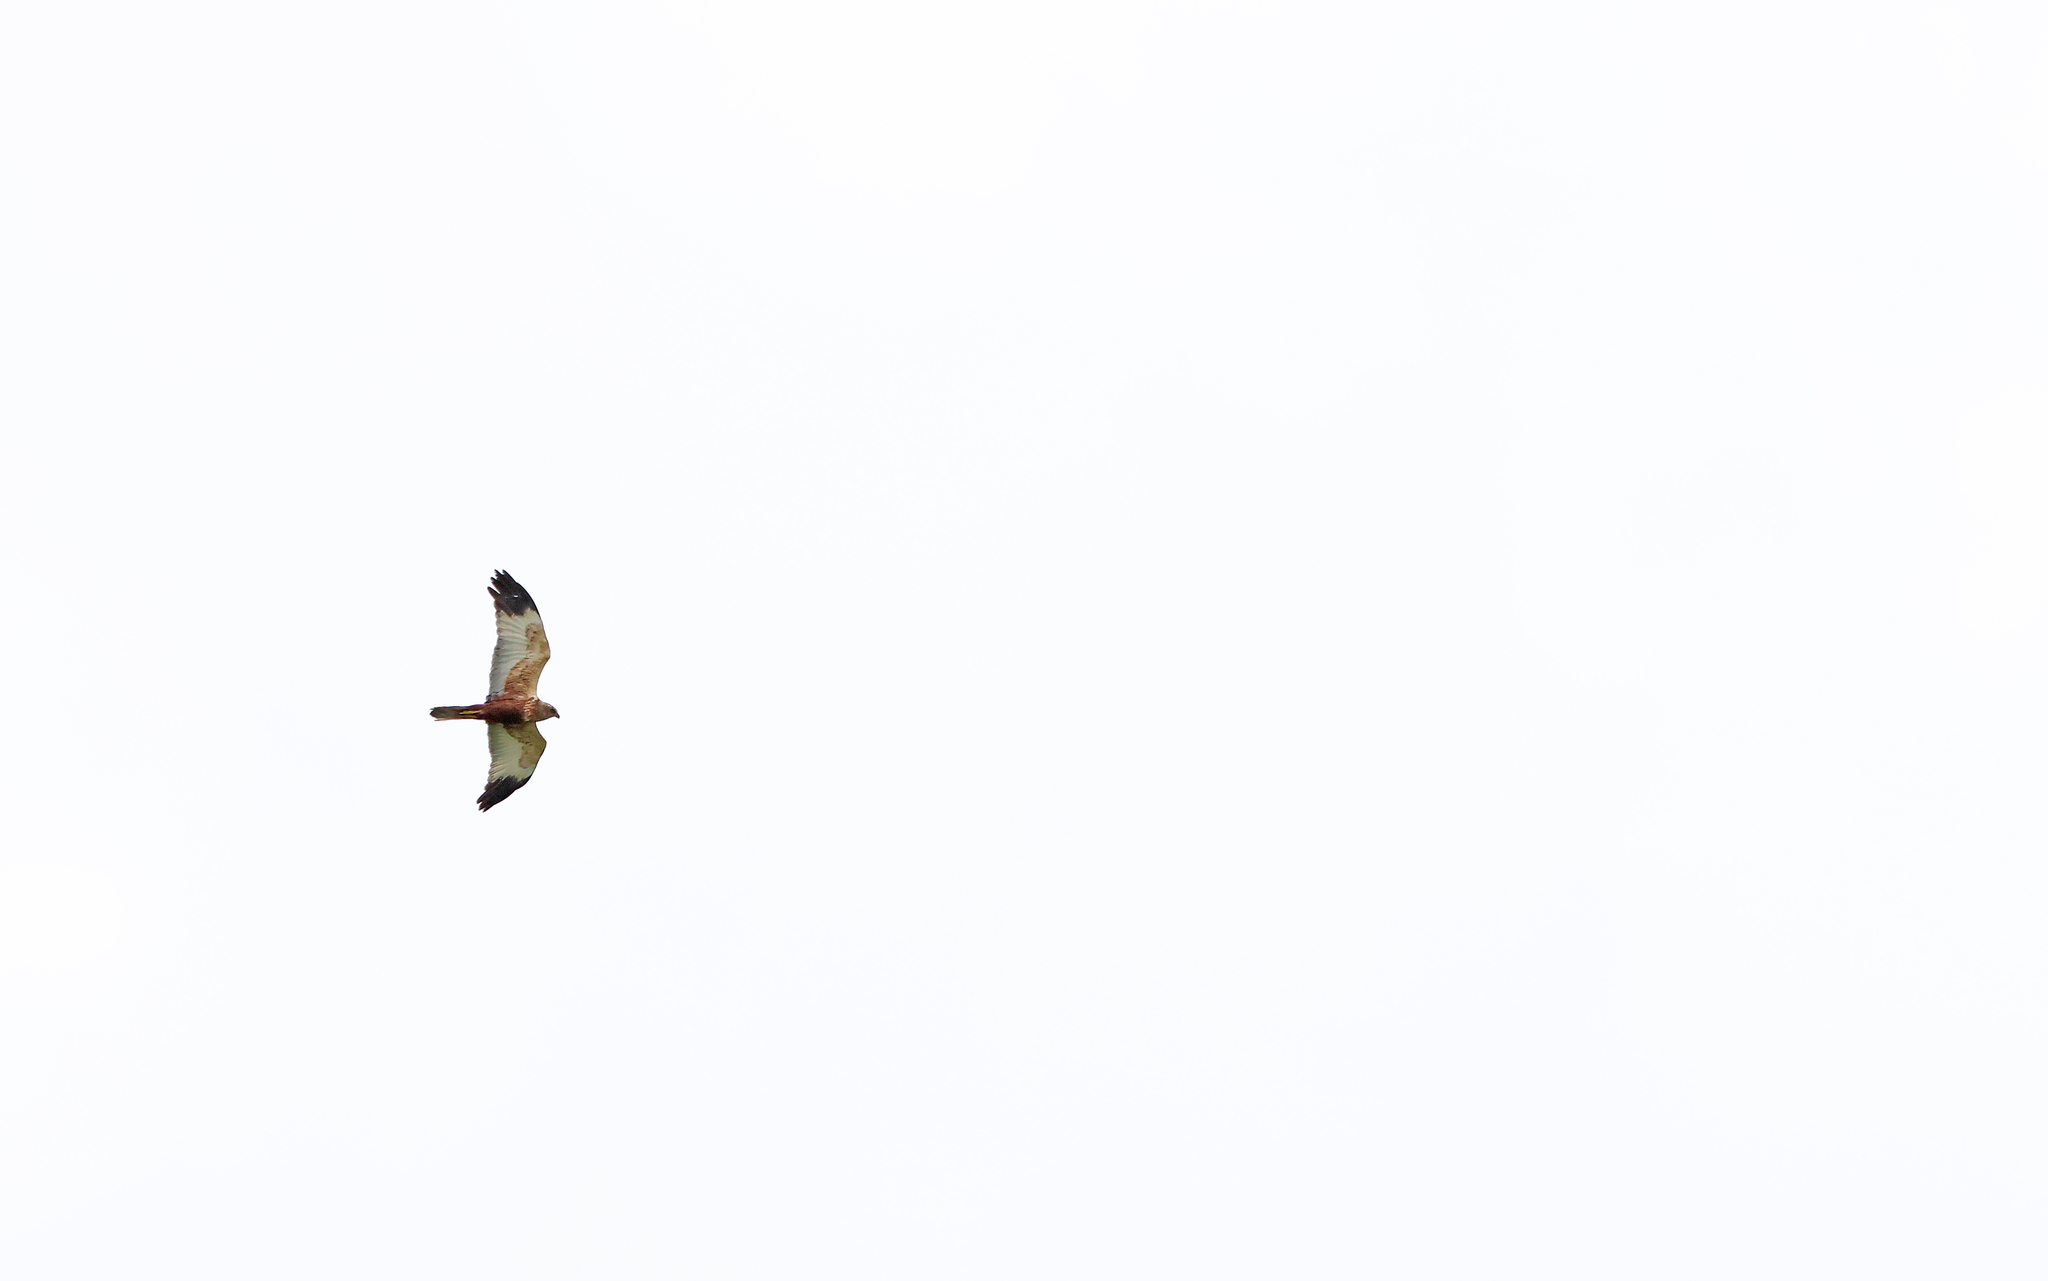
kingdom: Animalia
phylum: Chordata
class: Aves
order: Accipitriformes
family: Accipitridae
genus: Circus
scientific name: Circus aeruginosus
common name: Western marsh harrier
